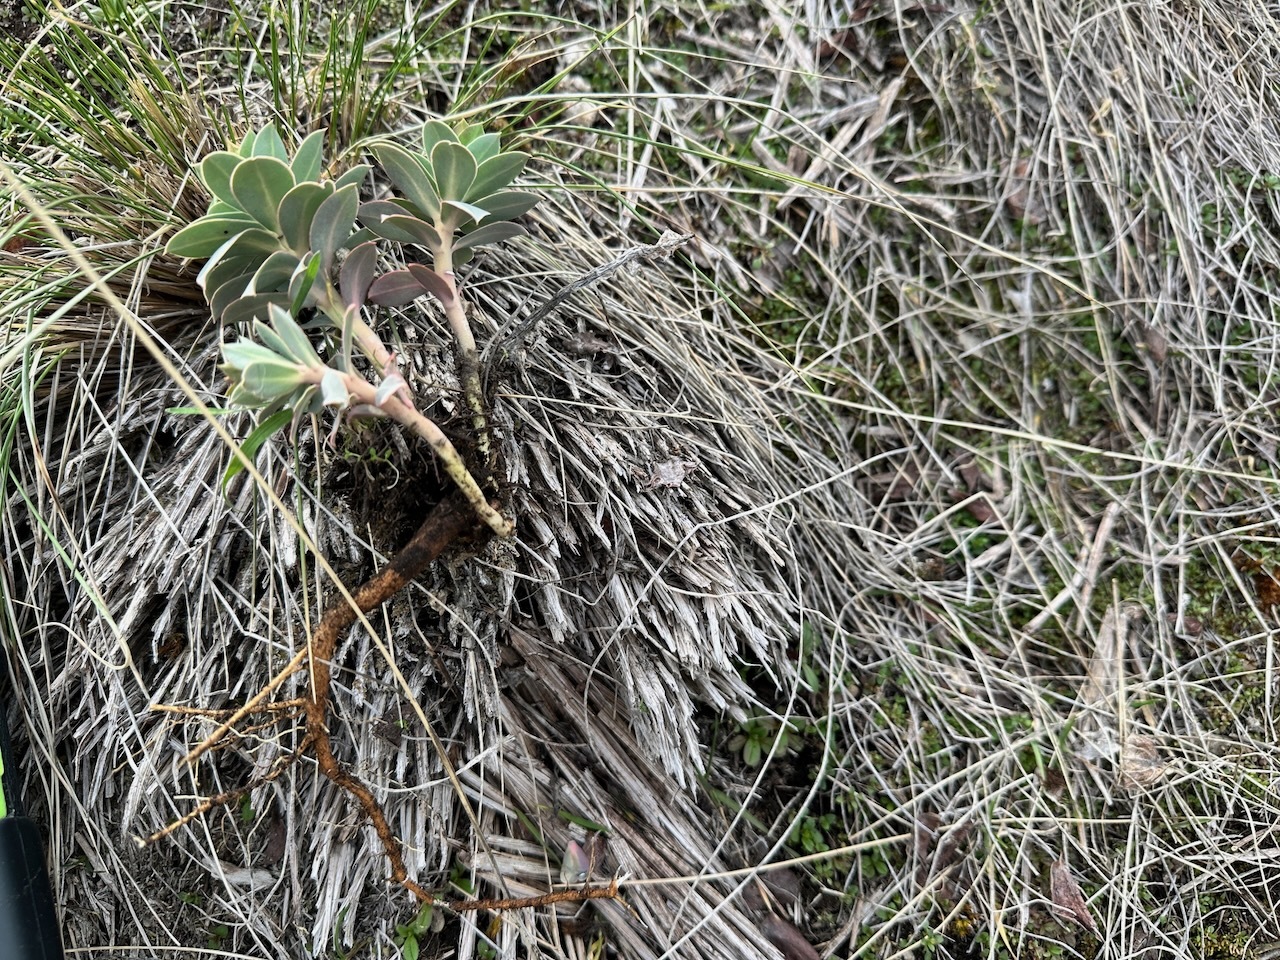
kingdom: Plantae
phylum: Tracheophyta
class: Magnoliopsida
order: Malpighiales
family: Euphorbiaceae
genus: Euphorbia
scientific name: Euphorbia myrsinites
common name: Myrtle spurge
